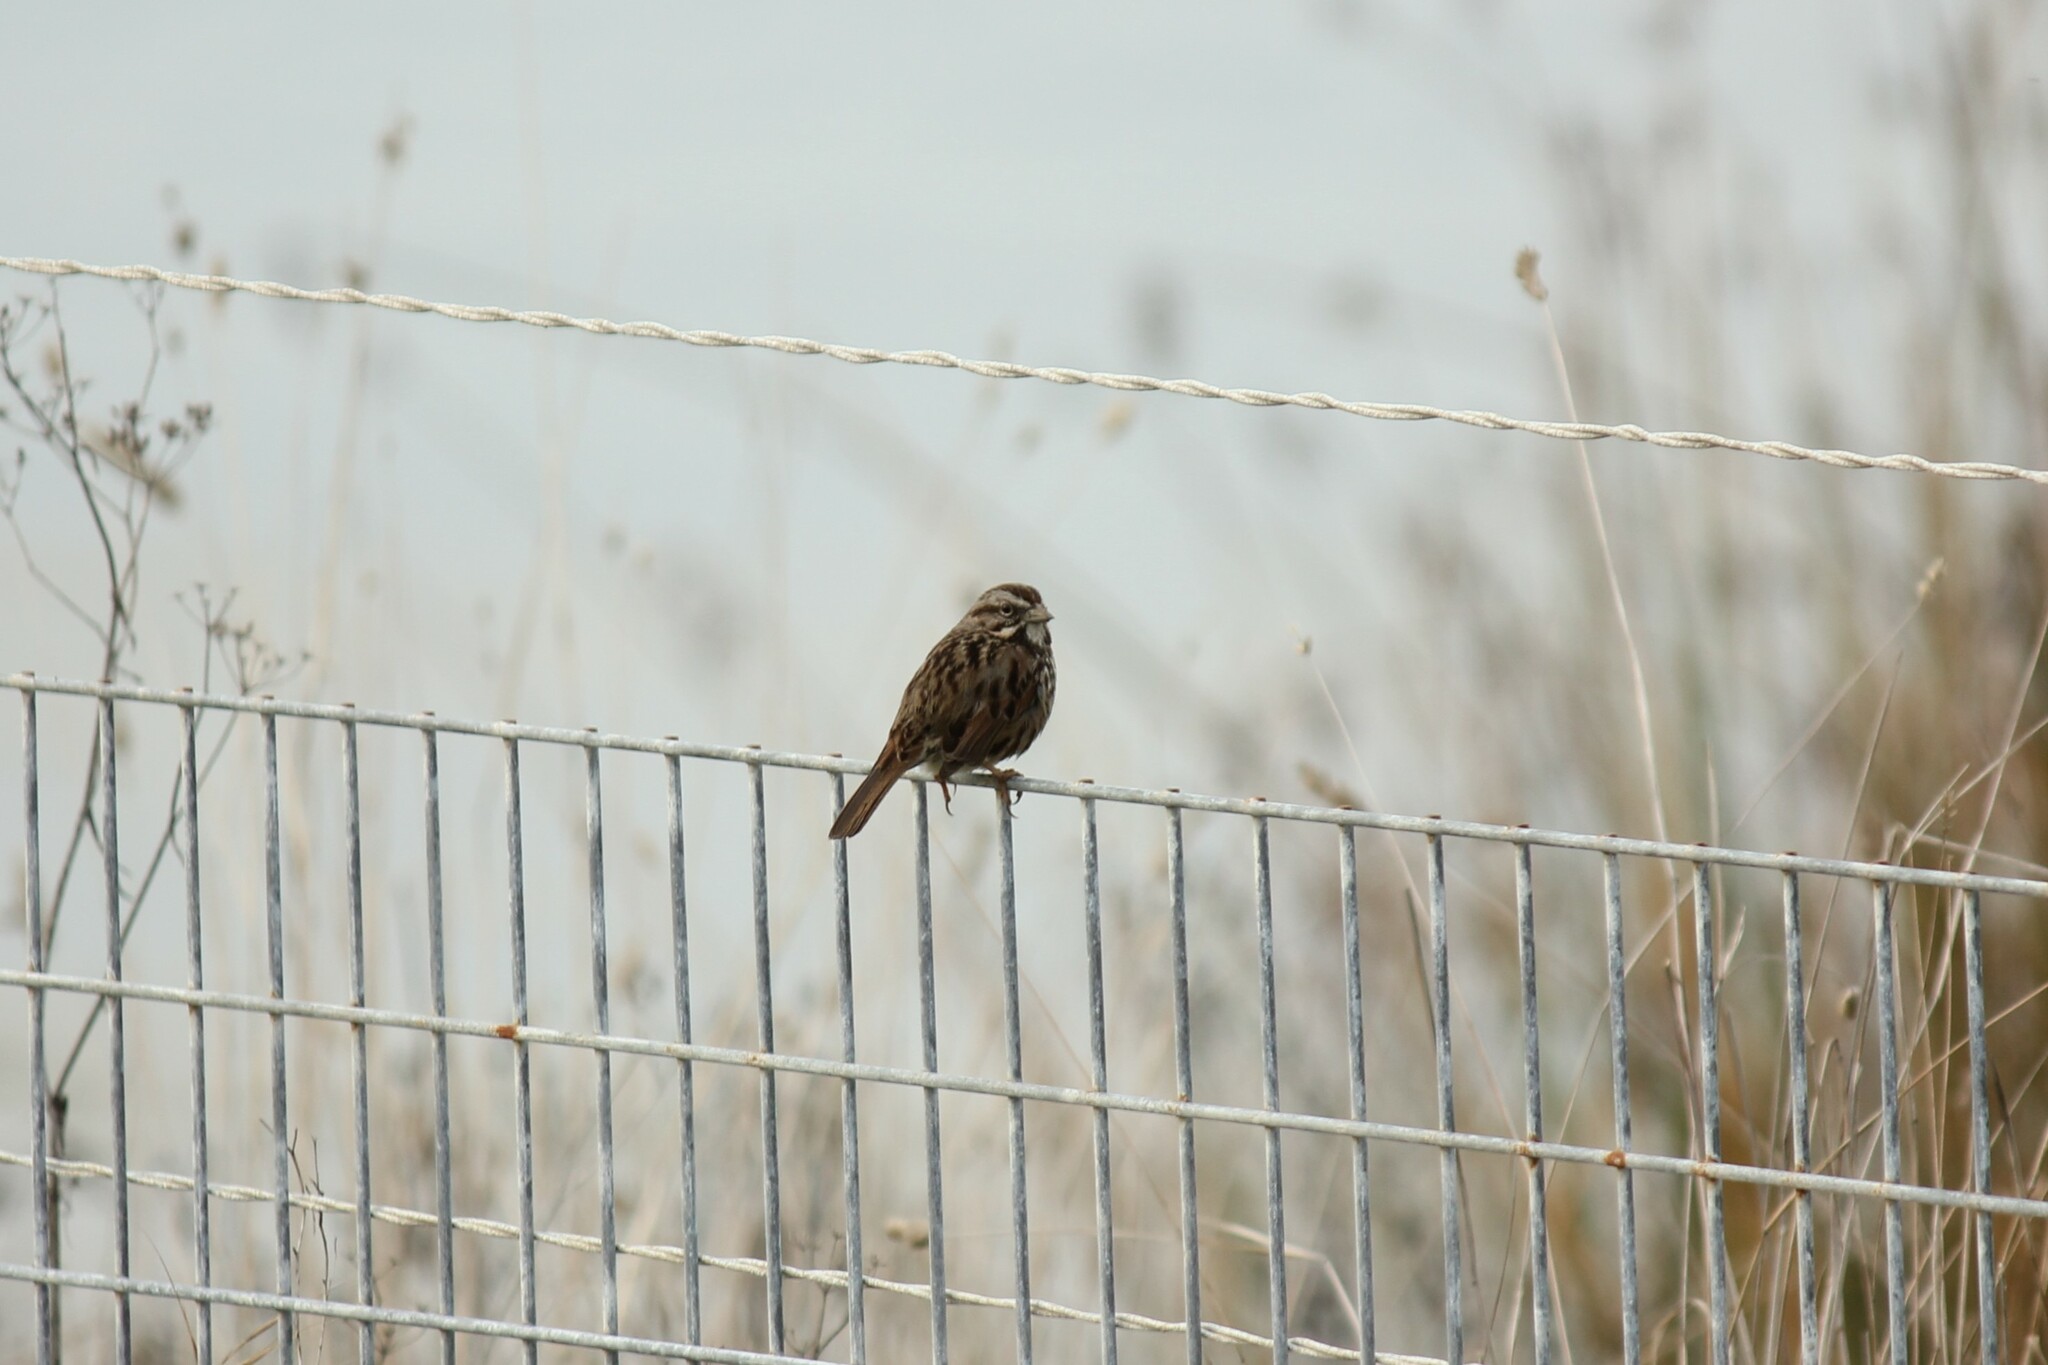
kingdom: Animalia
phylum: Chordata
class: Aves
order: Passeriformes
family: Passerellidae
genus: Melospiza
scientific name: Melospiza melodia
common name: Song sparrow
